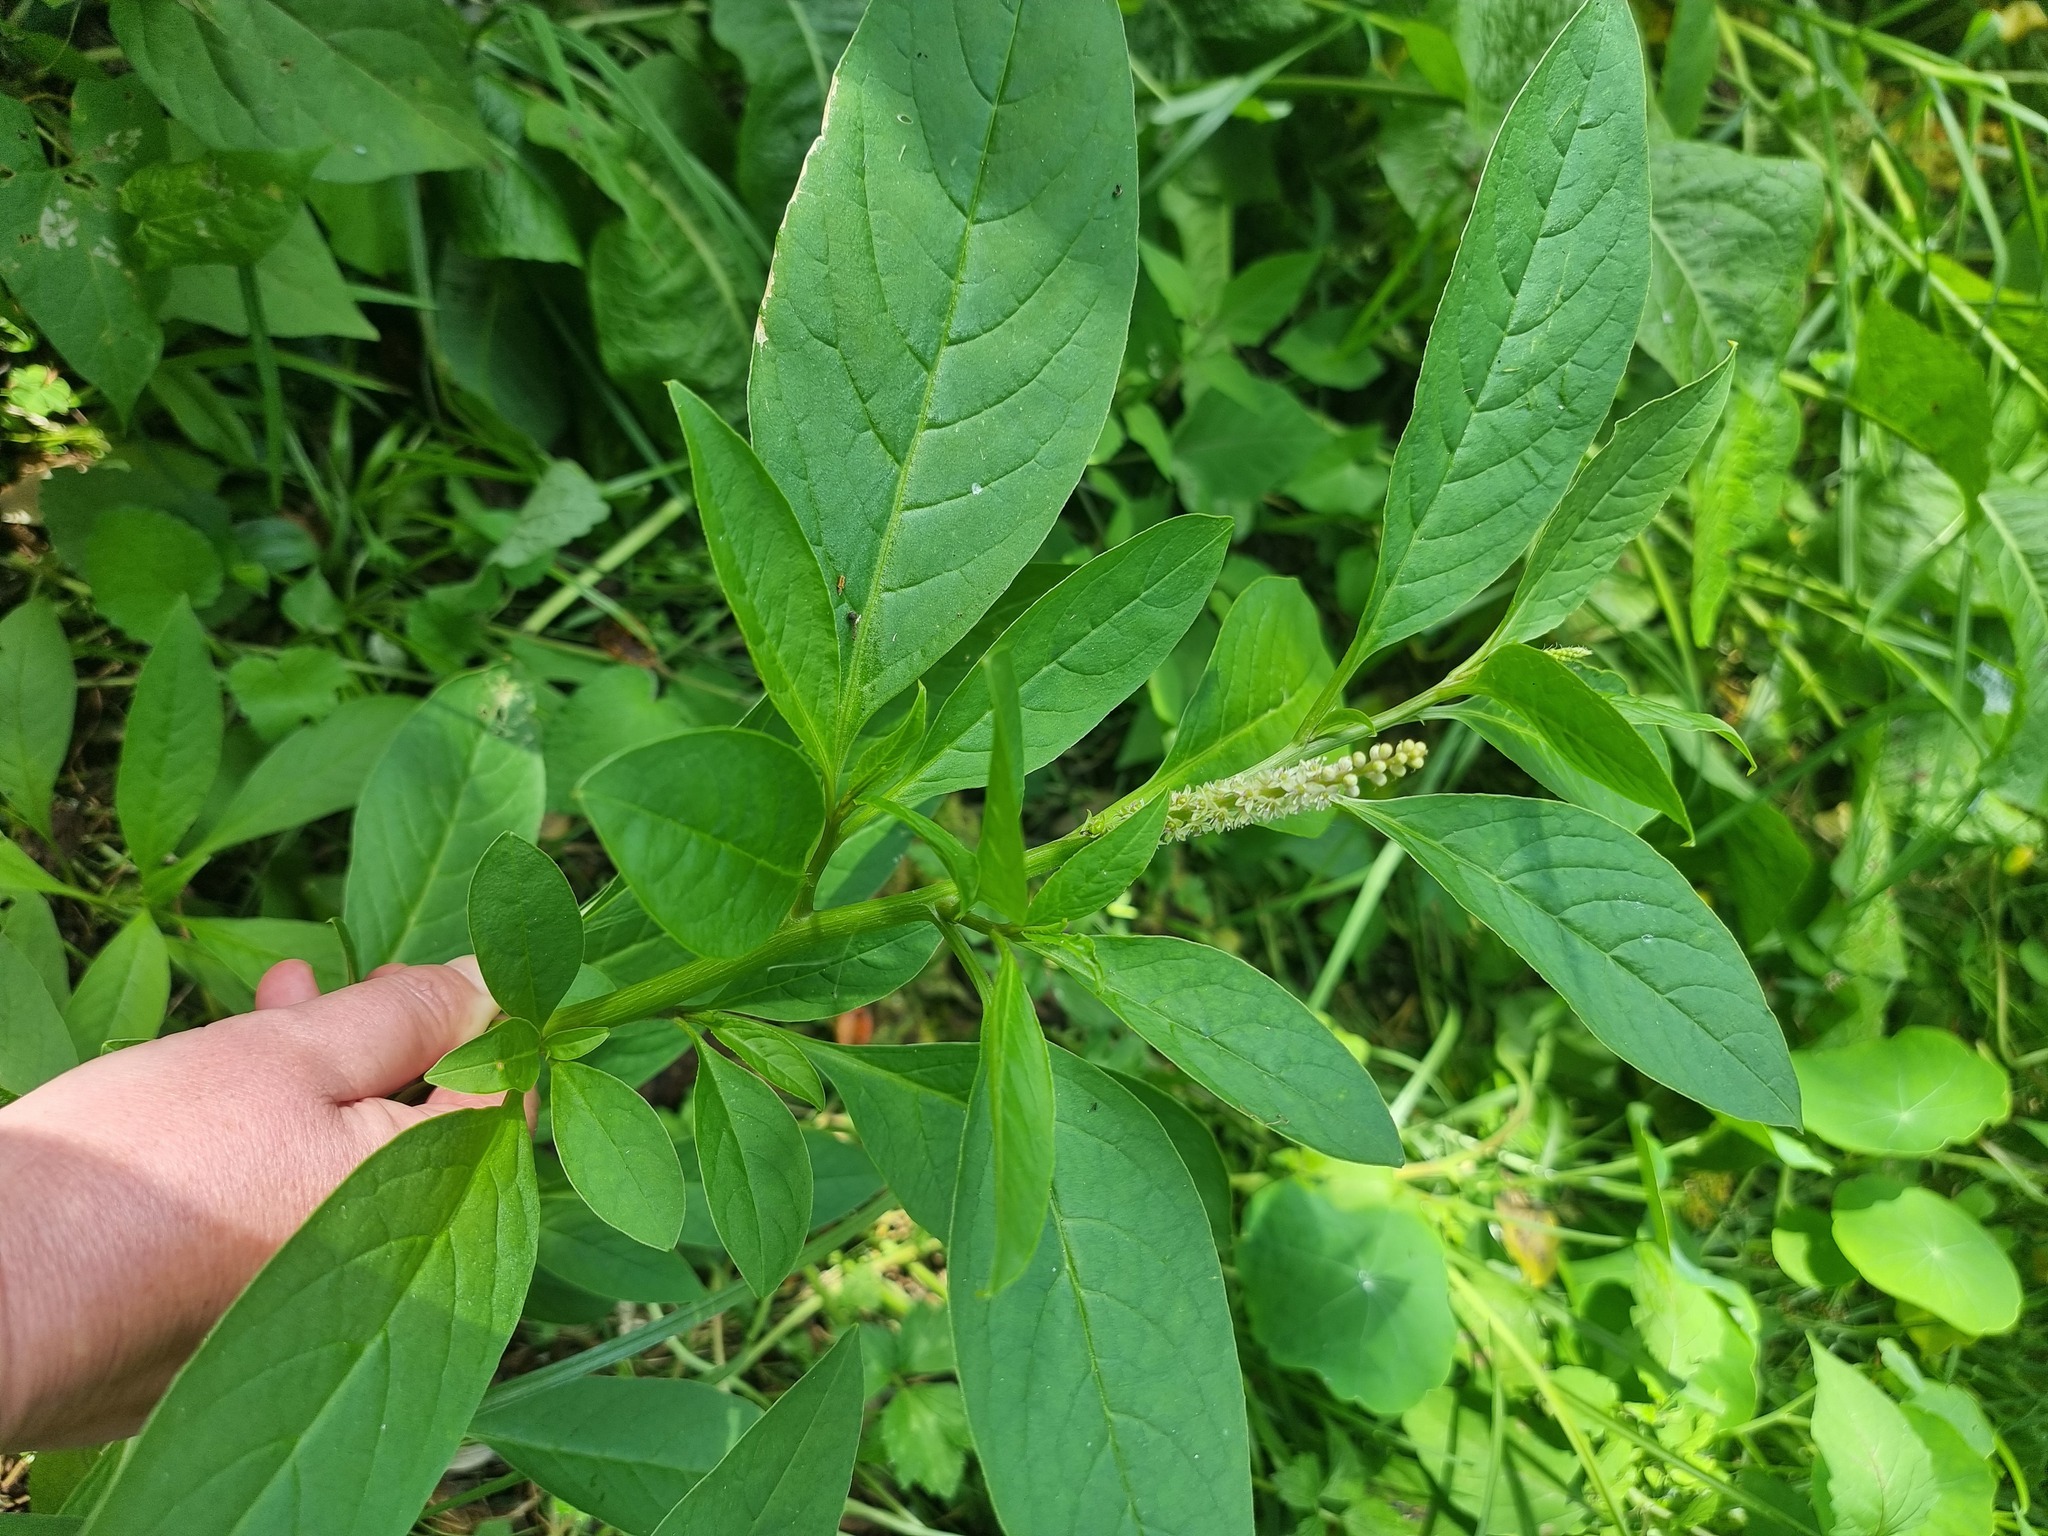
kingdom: Plantae
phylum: Tracheophyta
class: Magnoliopsida
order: Caryophyllales
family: Phytolaccaceae
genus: Phytolacca
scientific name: Phytolacca icosandra
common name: Button pokeweed
